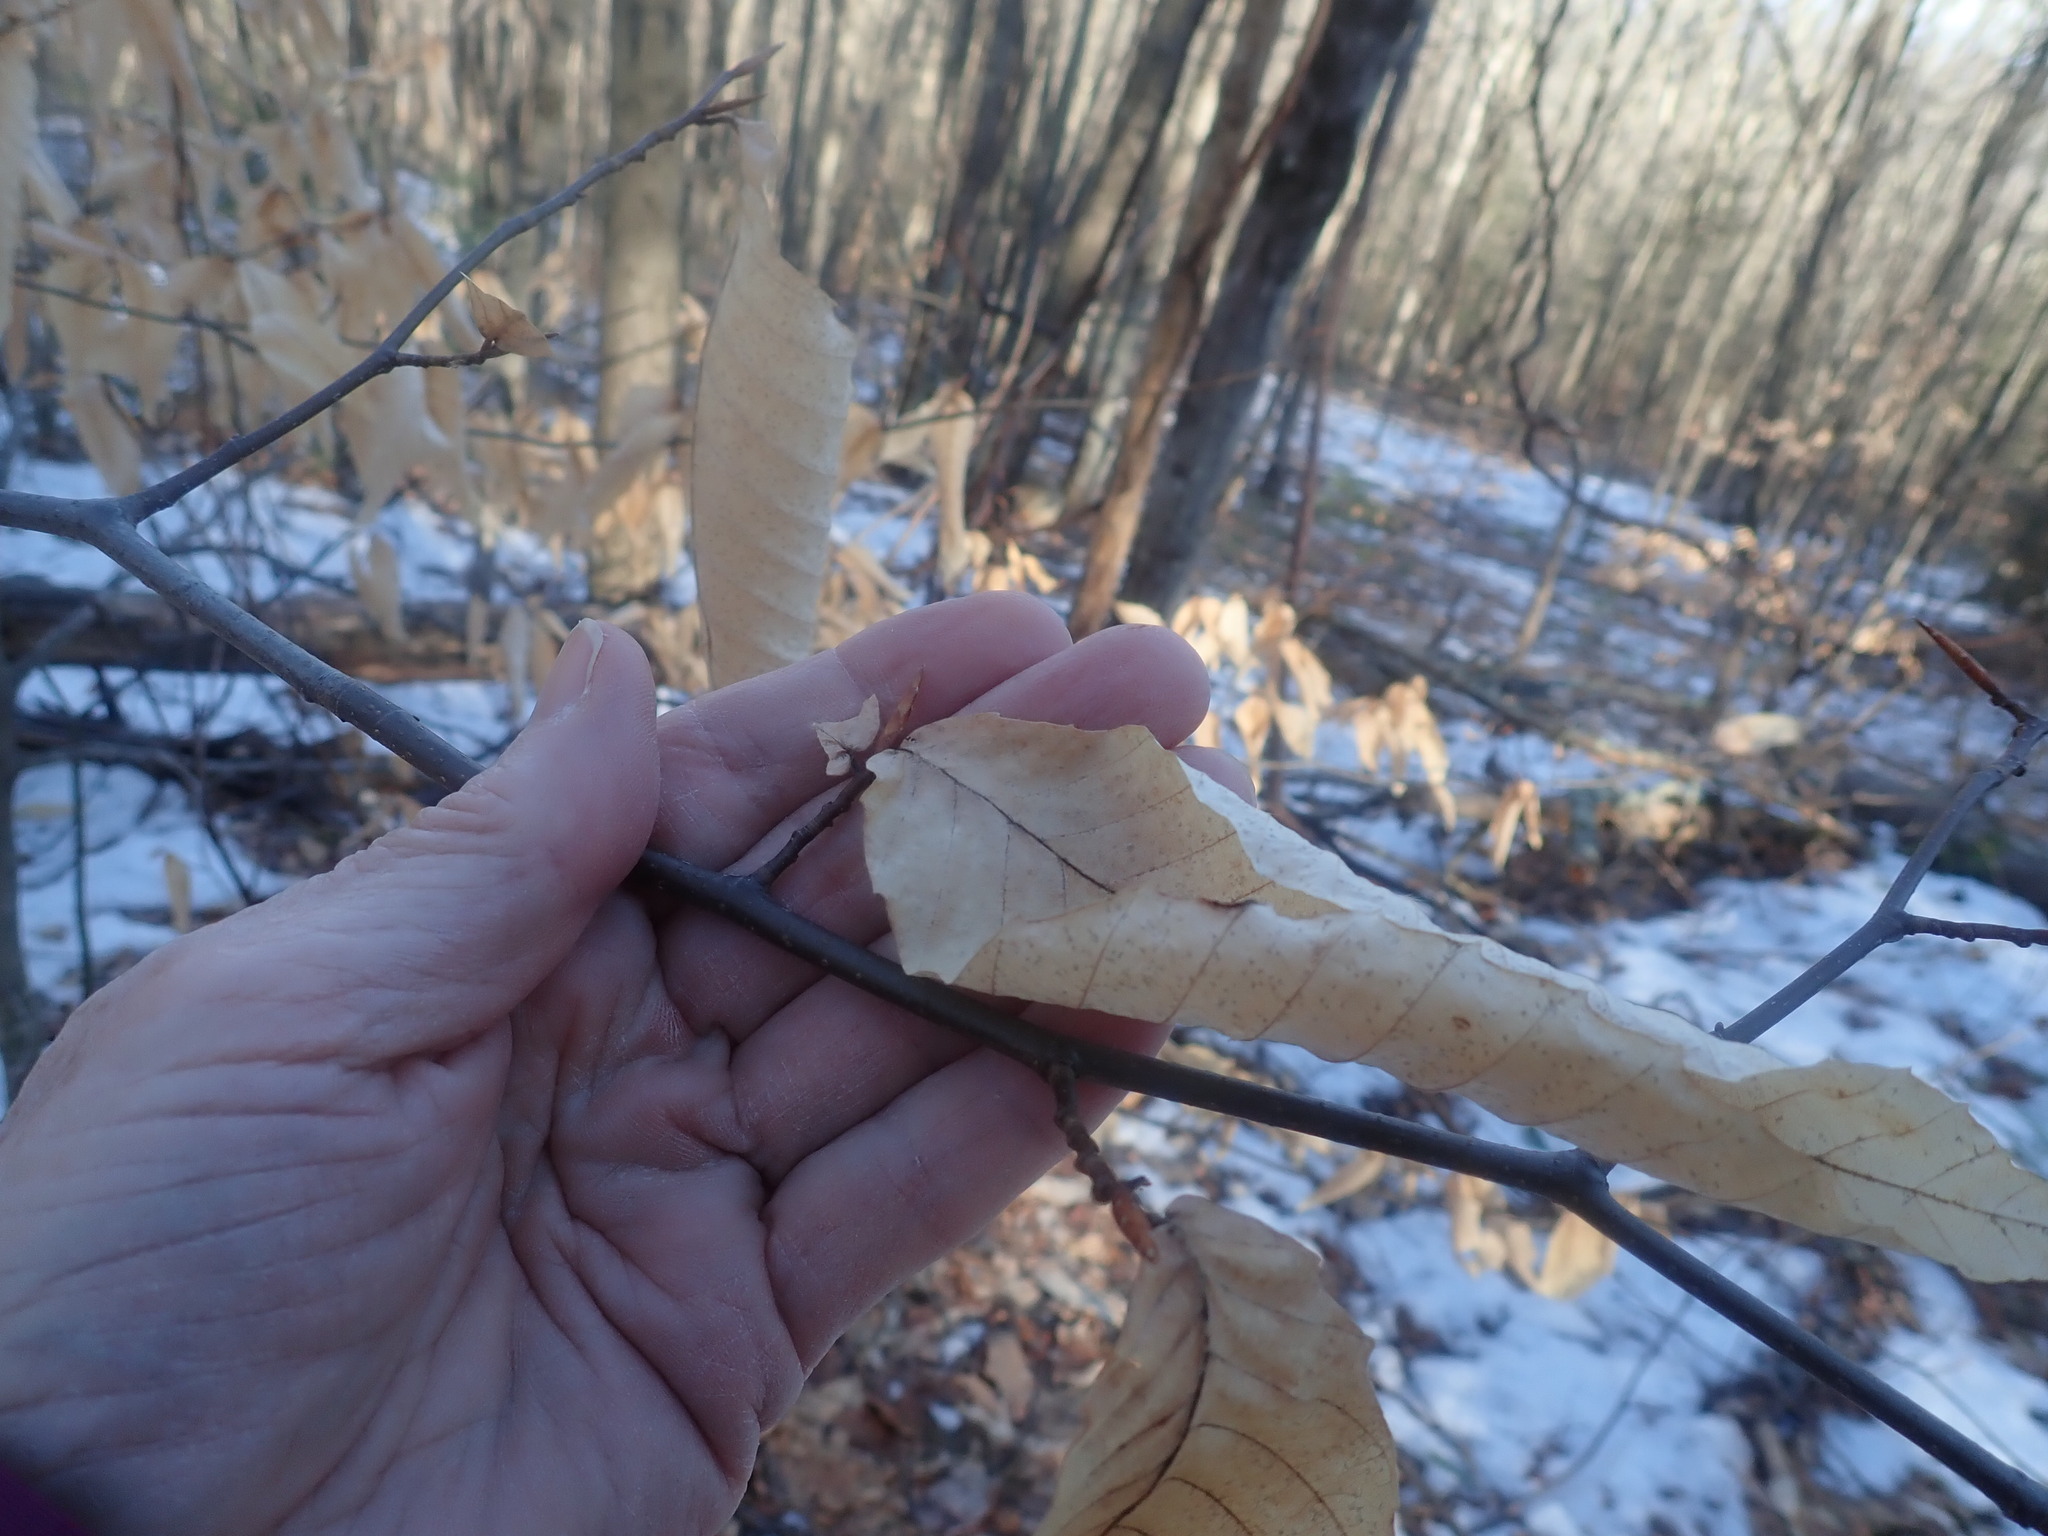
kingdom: Plantae
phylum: Tracheophyta
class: Magnoliopsida
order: Fagales
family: Fagaceae
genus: Fagus
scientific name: Fagus grandifolia
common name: American beech
